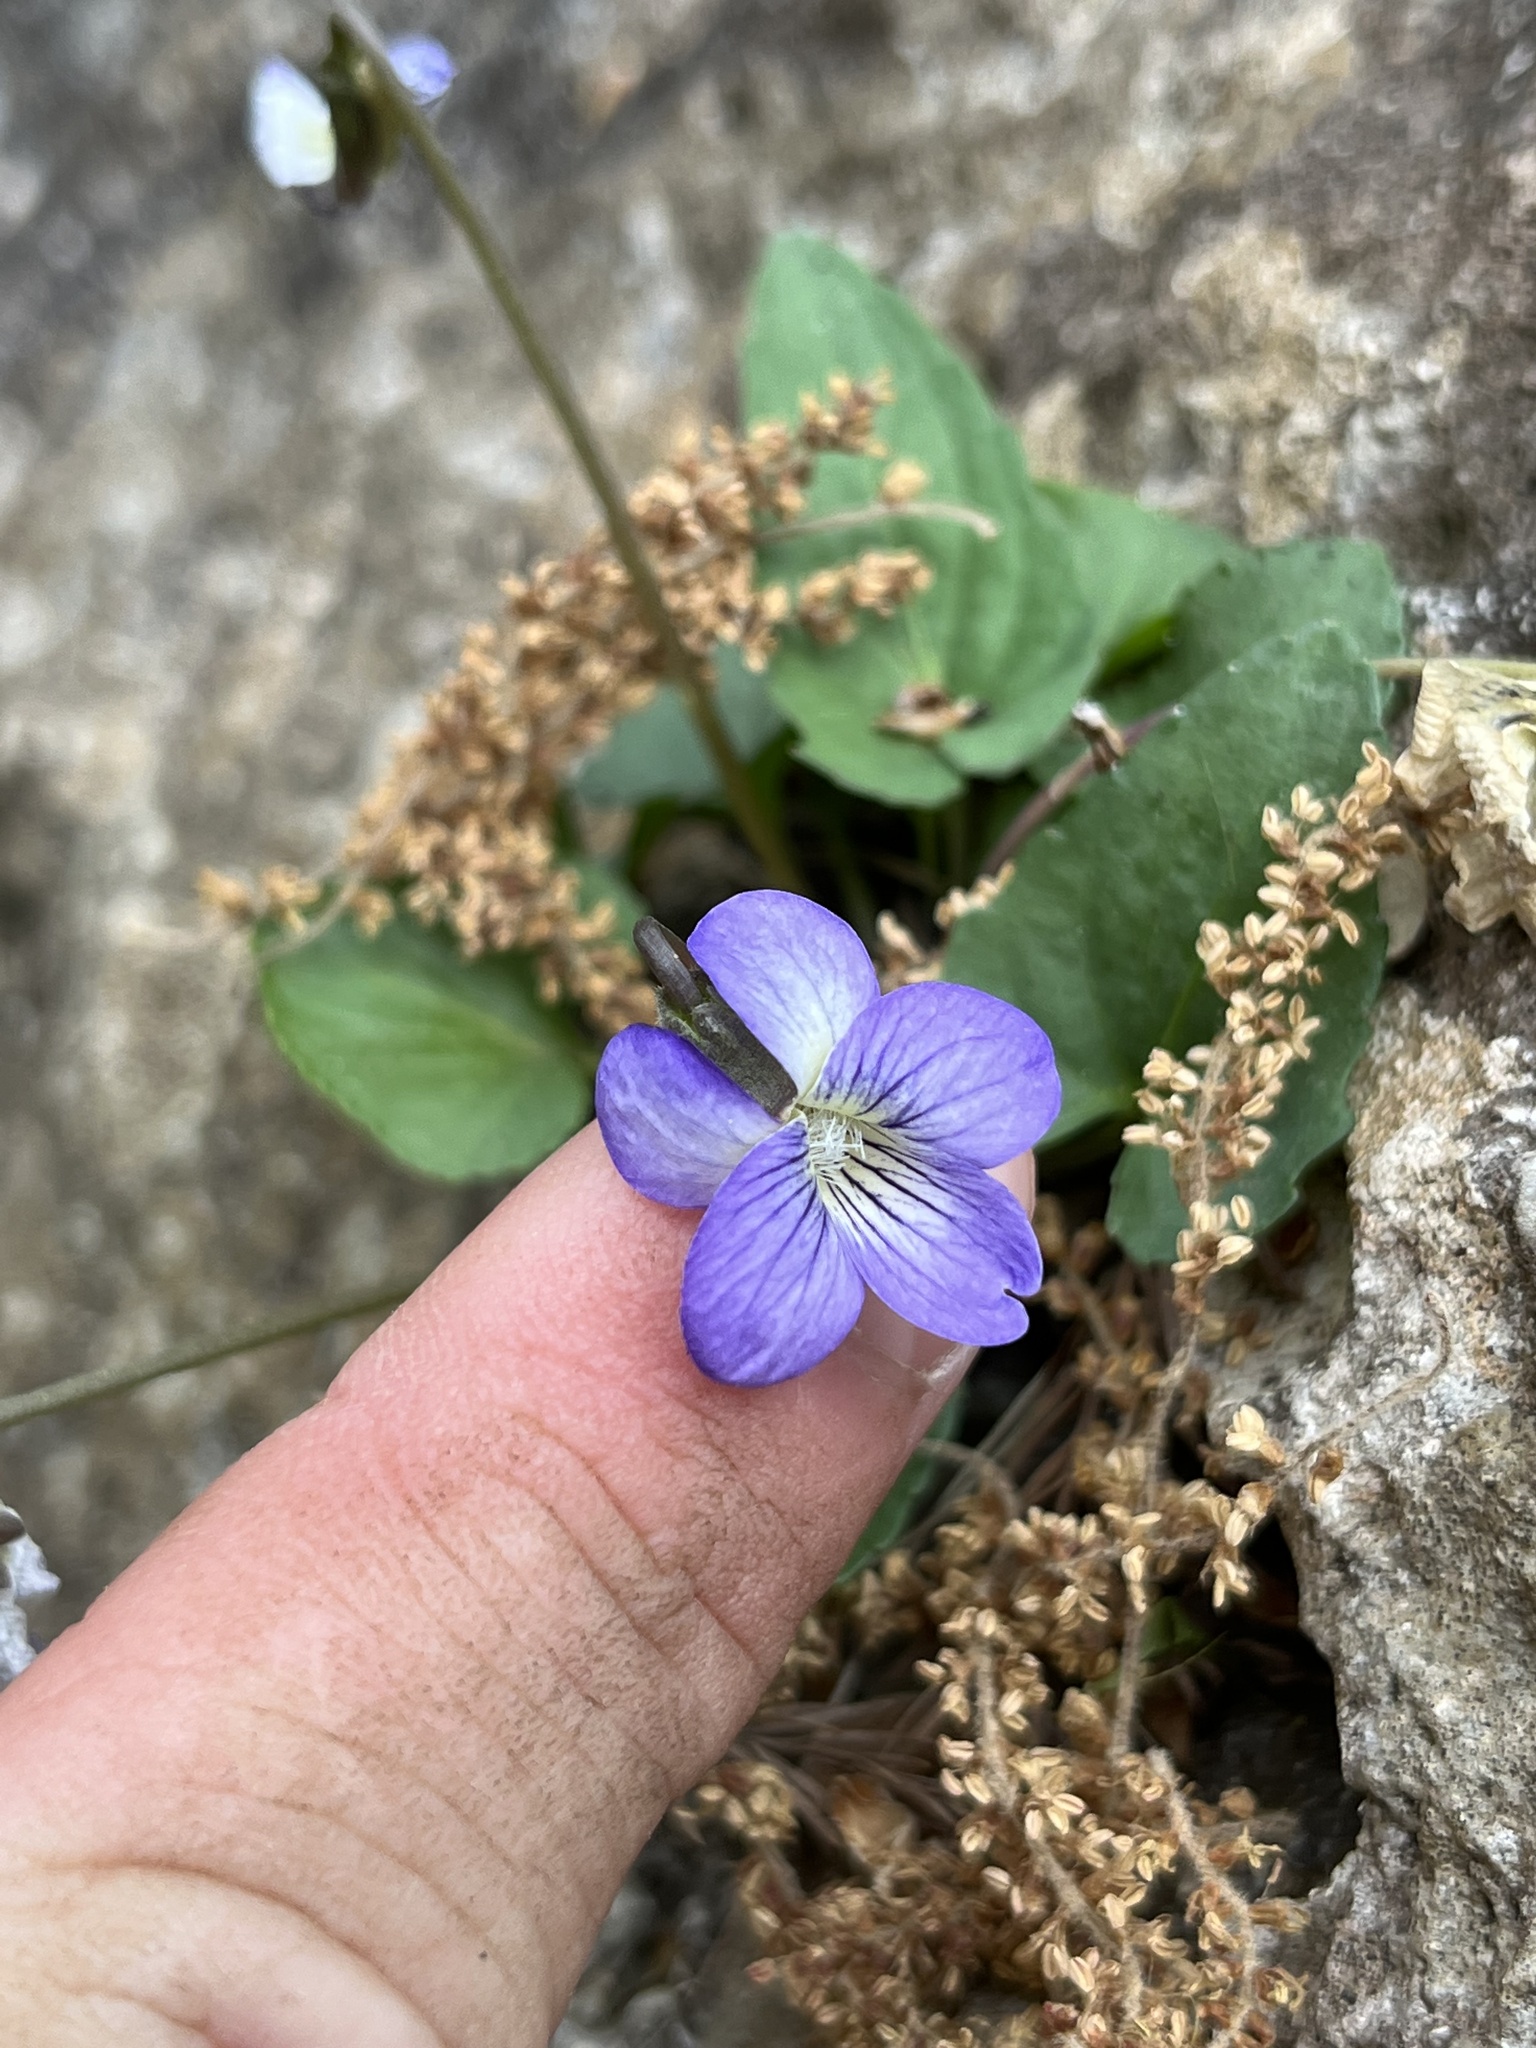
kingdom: Plantae
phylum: Tracheophyta
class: Magnoliopsida
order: Malpighiales
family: Violaceae
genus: Viola
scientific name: Viola missouriensis
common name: Missouri violet
